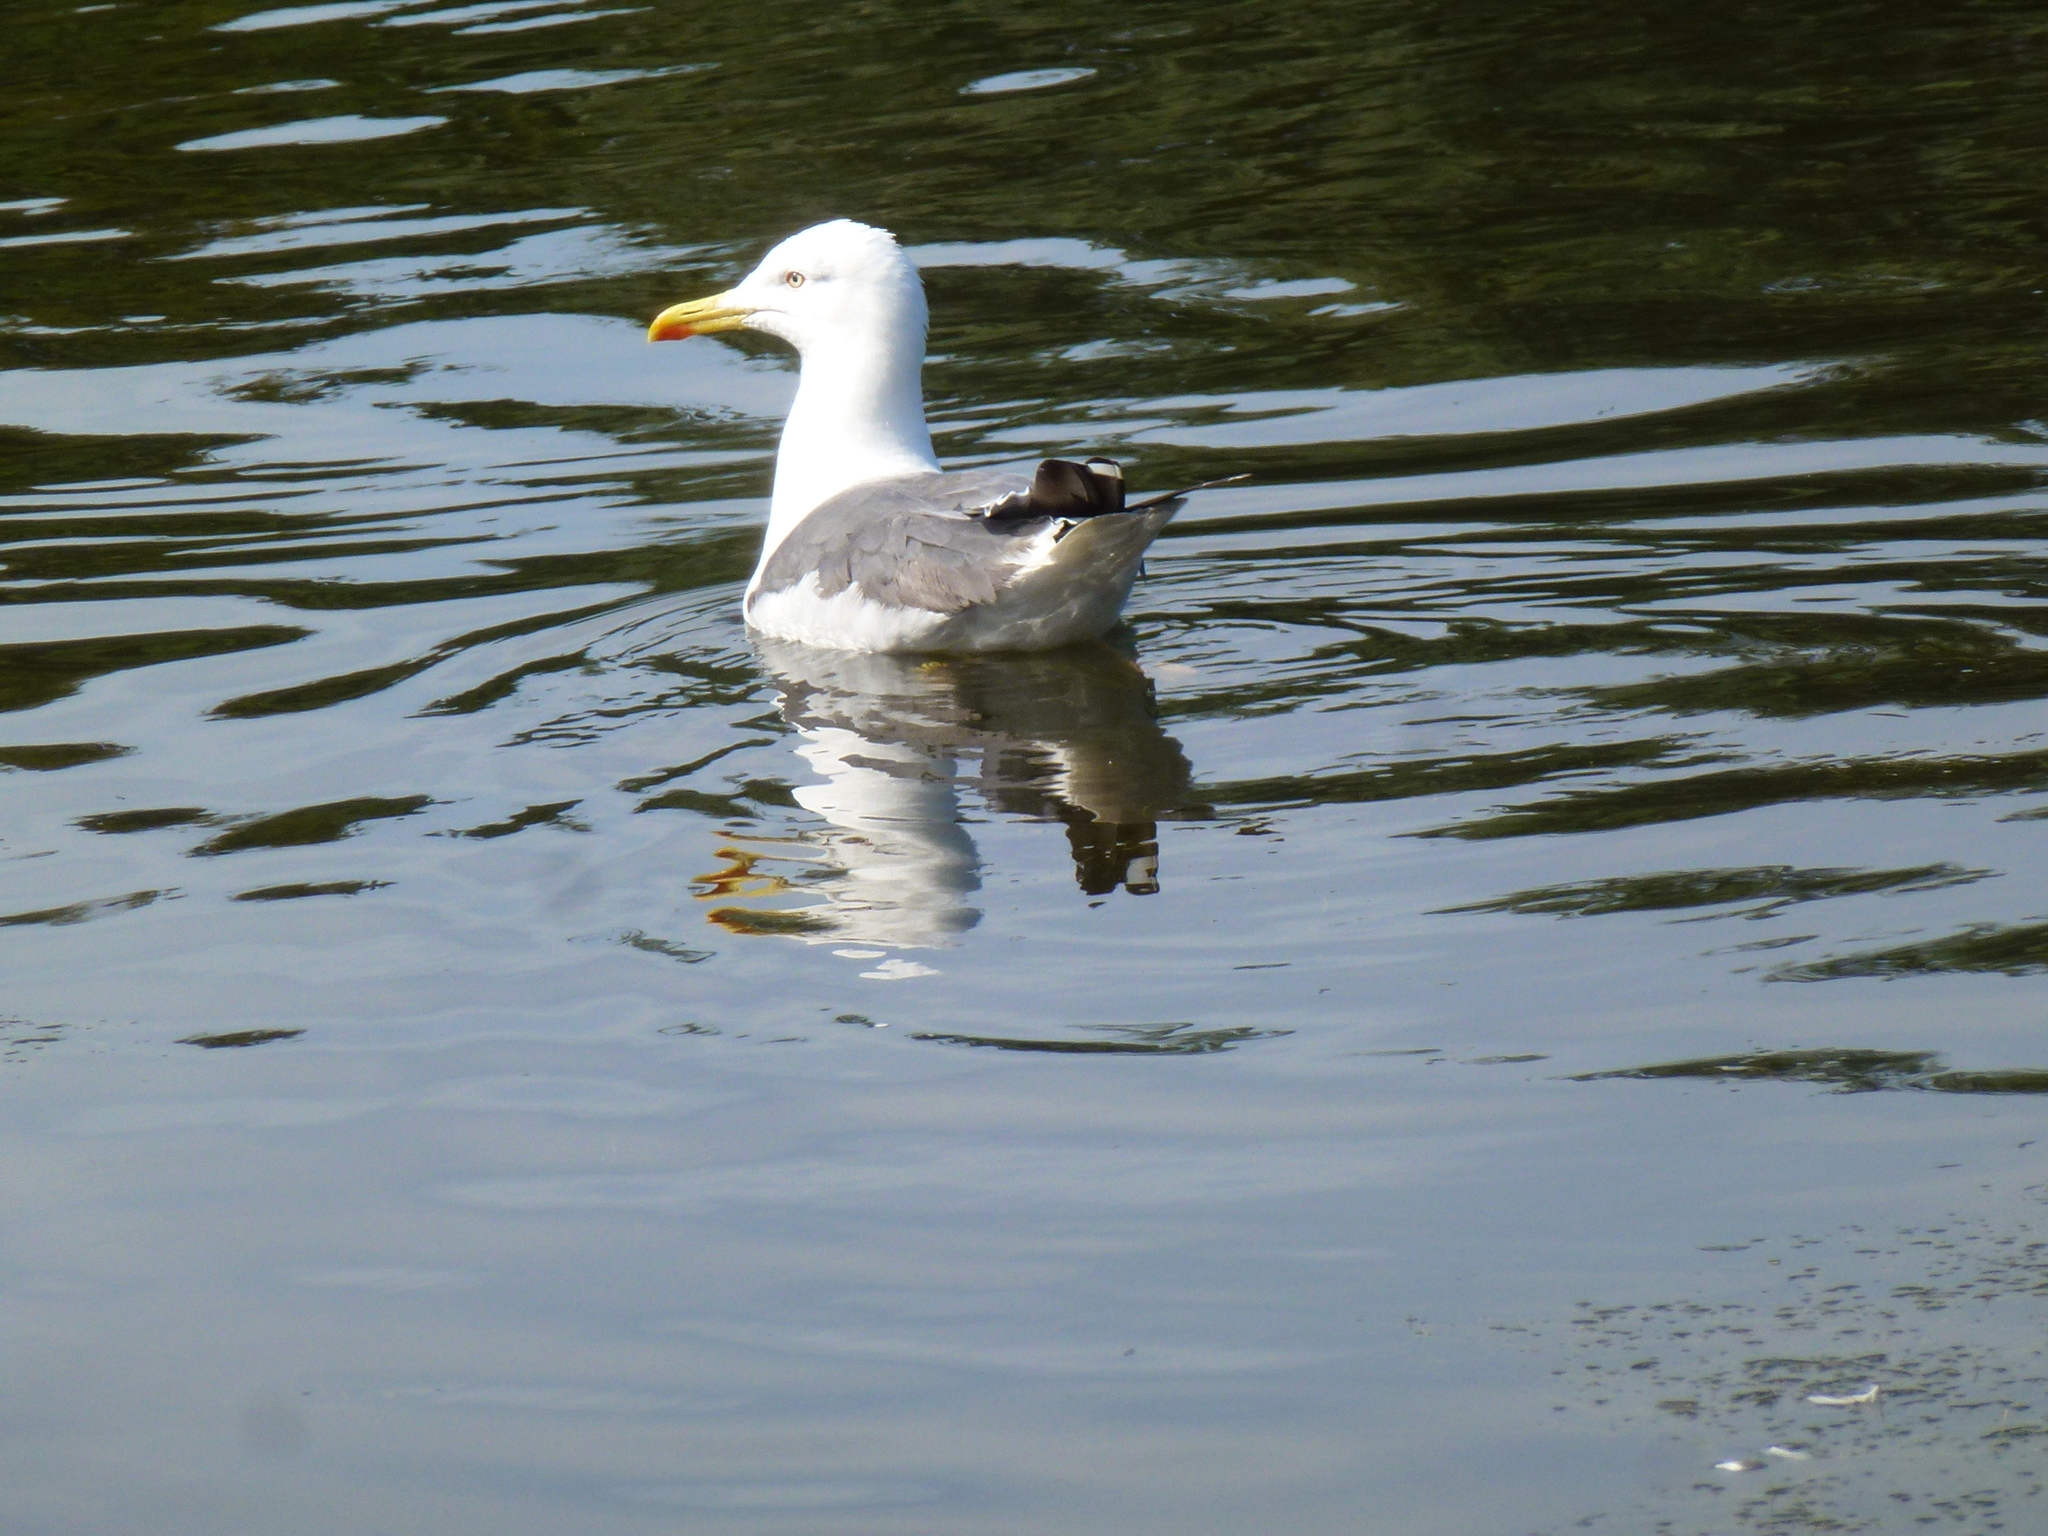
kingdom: Animalia
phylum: Chordata
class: Aves
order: Charadriiformes
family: Laridae
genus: Larus
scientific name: Larus fuscus
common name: Lesser black-backed gull
